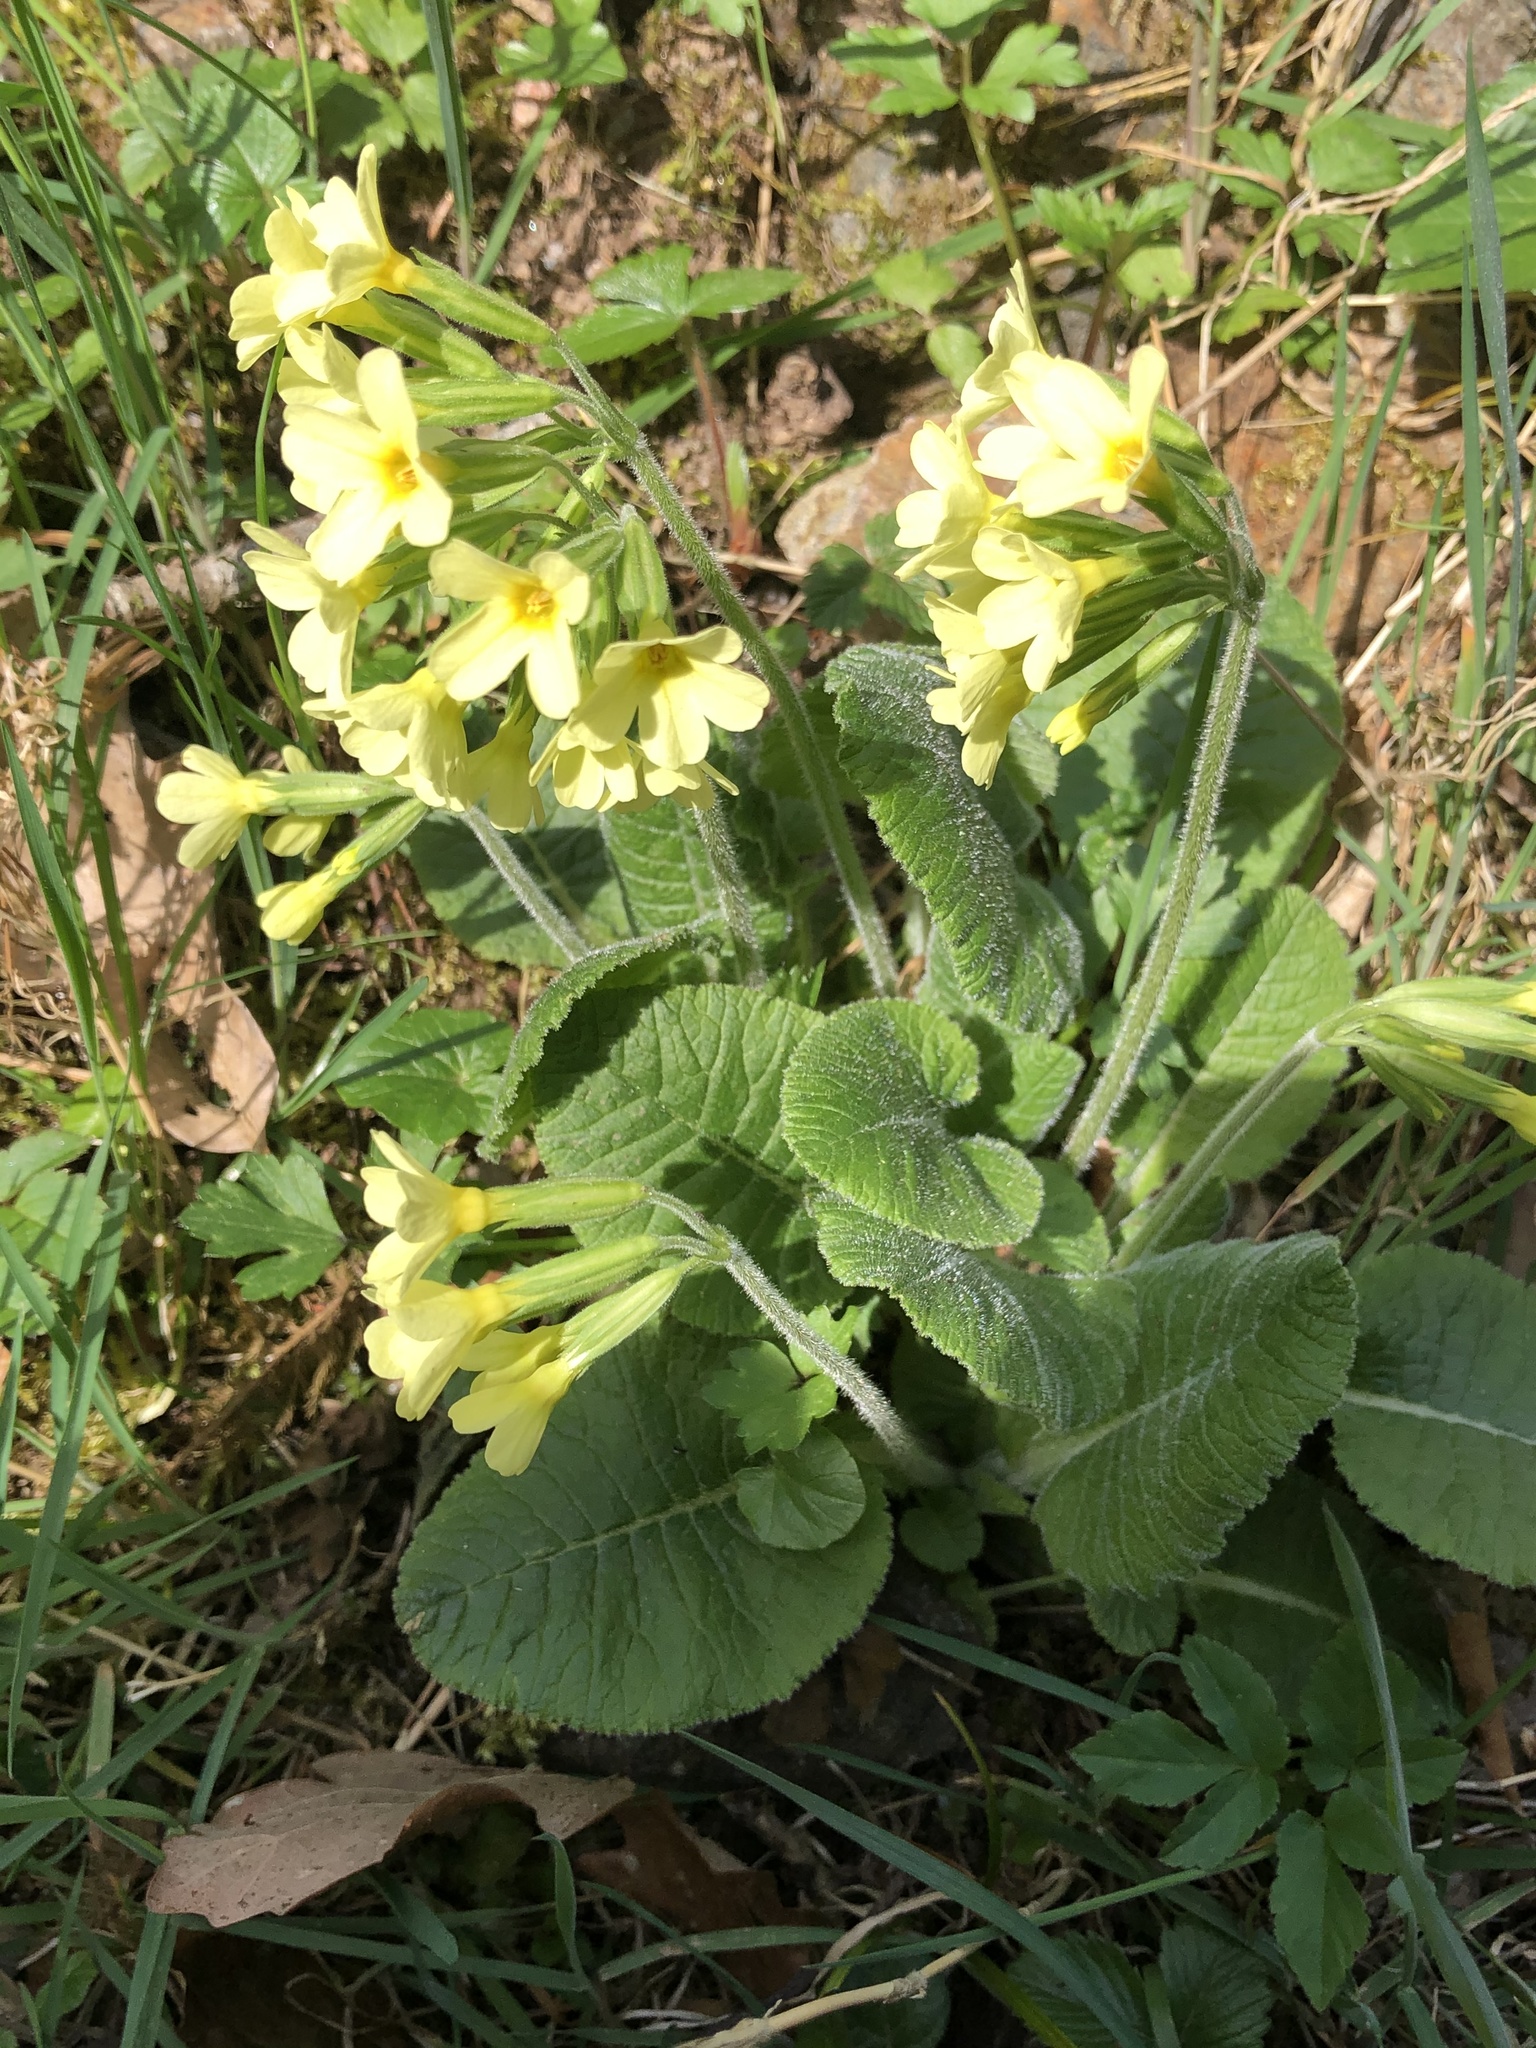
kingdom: Plantae
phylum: Tracheophyta
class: Magnoliopsida
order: Ericales
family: Primulaceae
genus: Primula
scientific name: Primula elatior
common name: Oxlip
